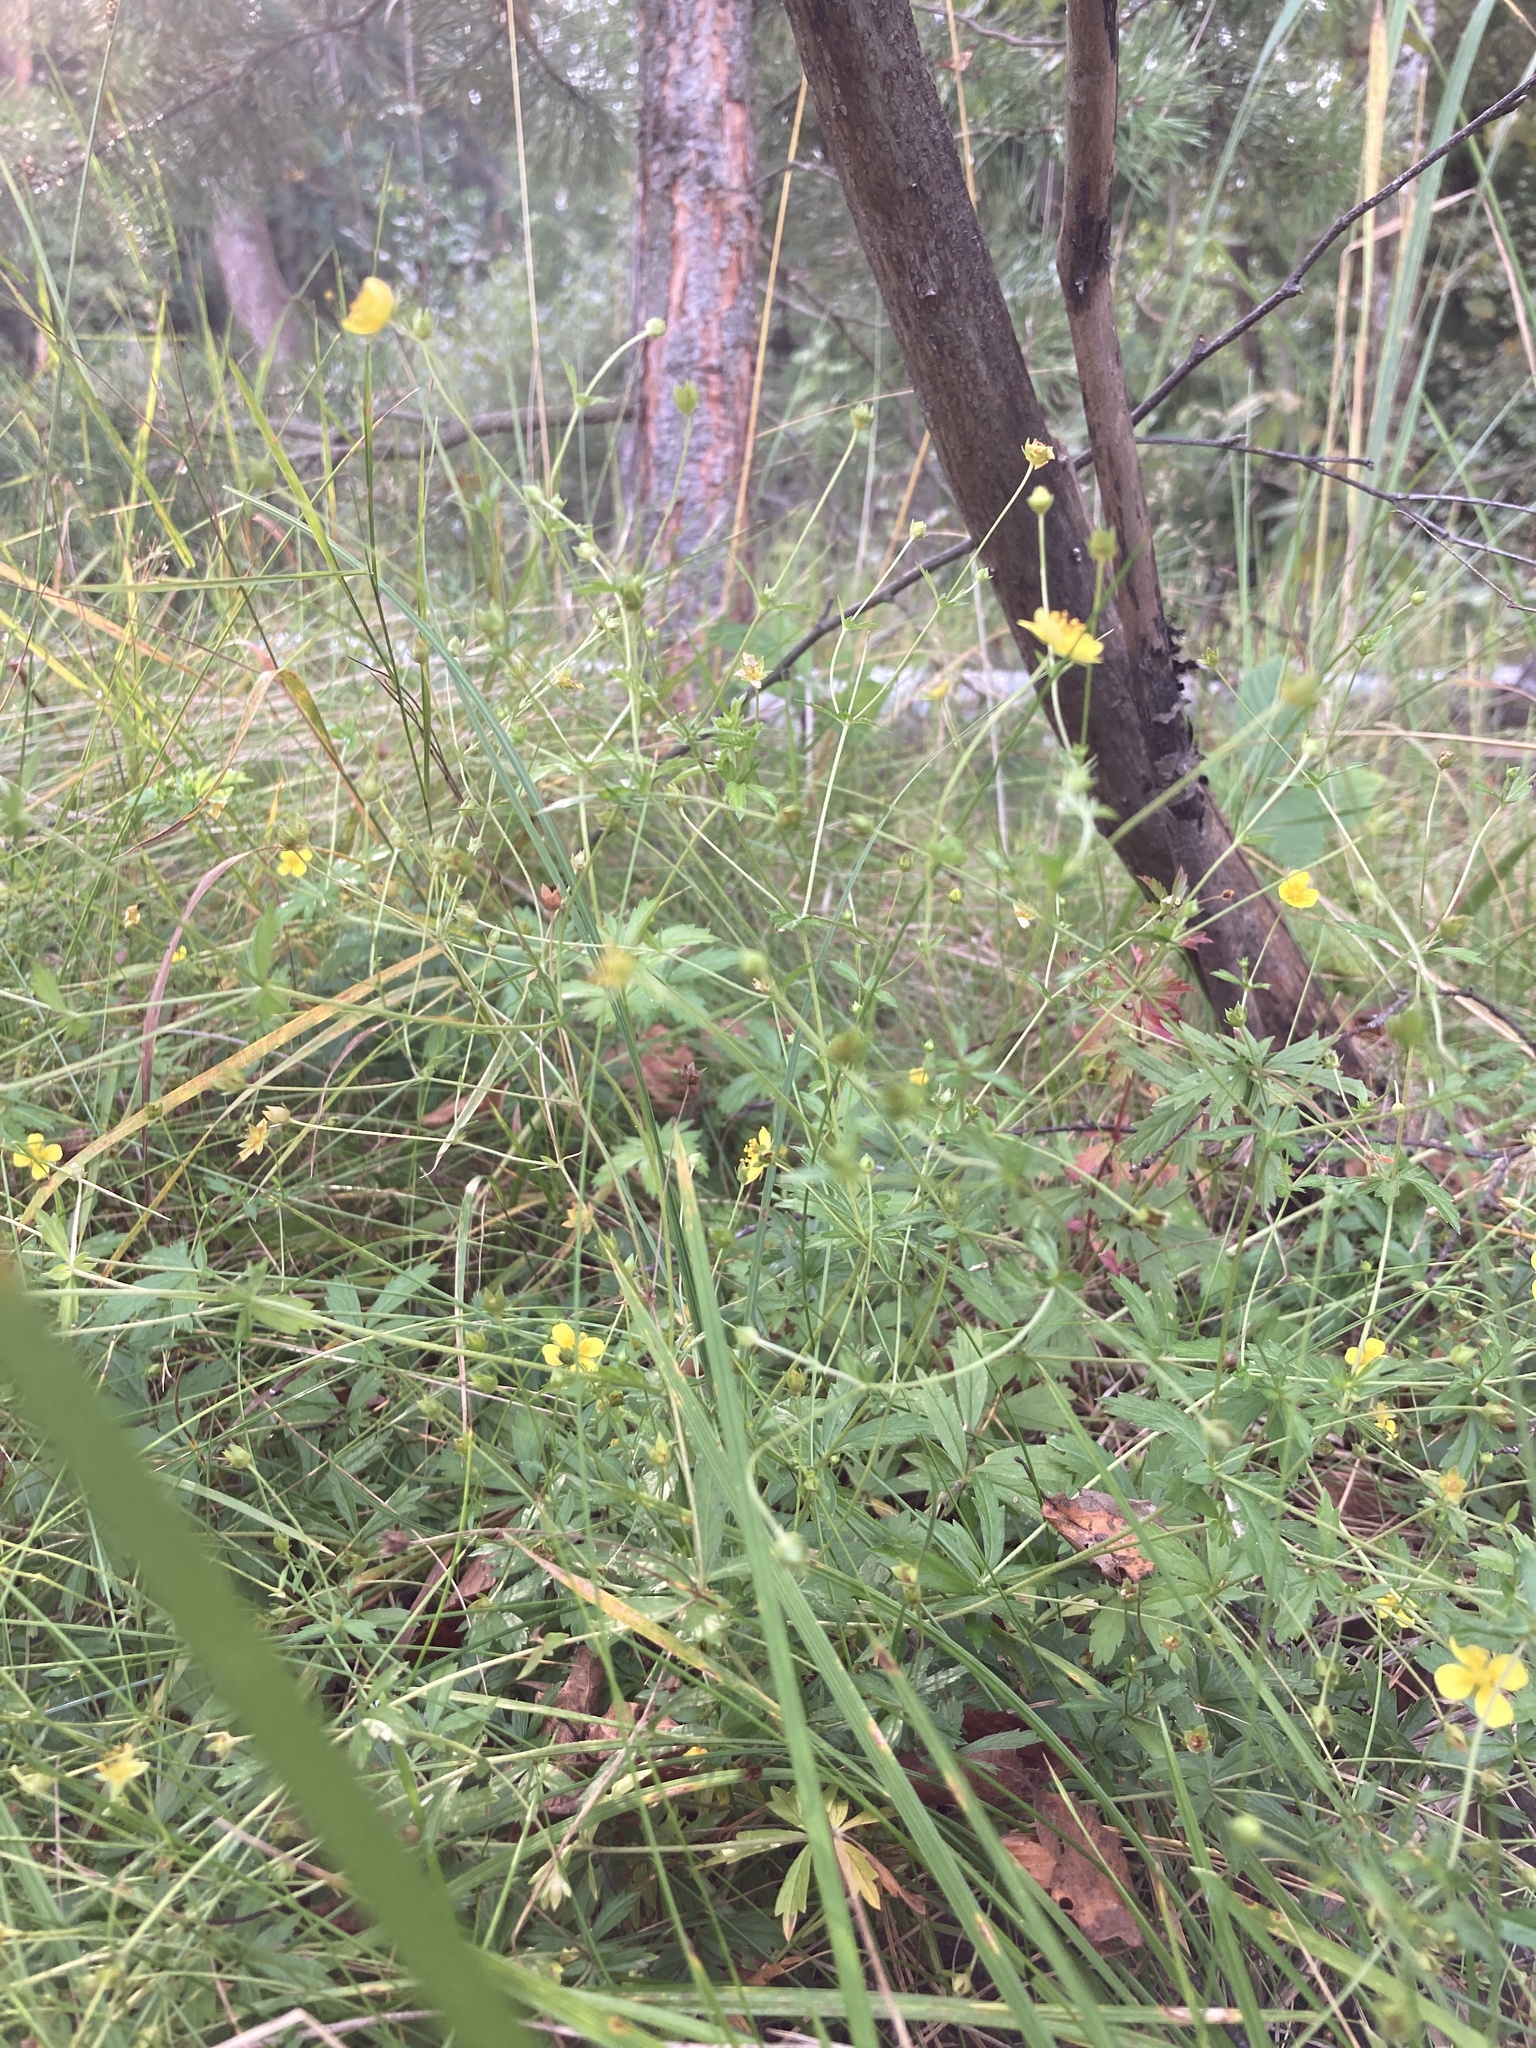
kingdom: Plantae
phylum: Tracheophyta
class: Magnoliopsida
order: Rosales
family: Rosaceae
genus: Potentilla
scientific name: Potentilla erecta
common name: Tormentil
